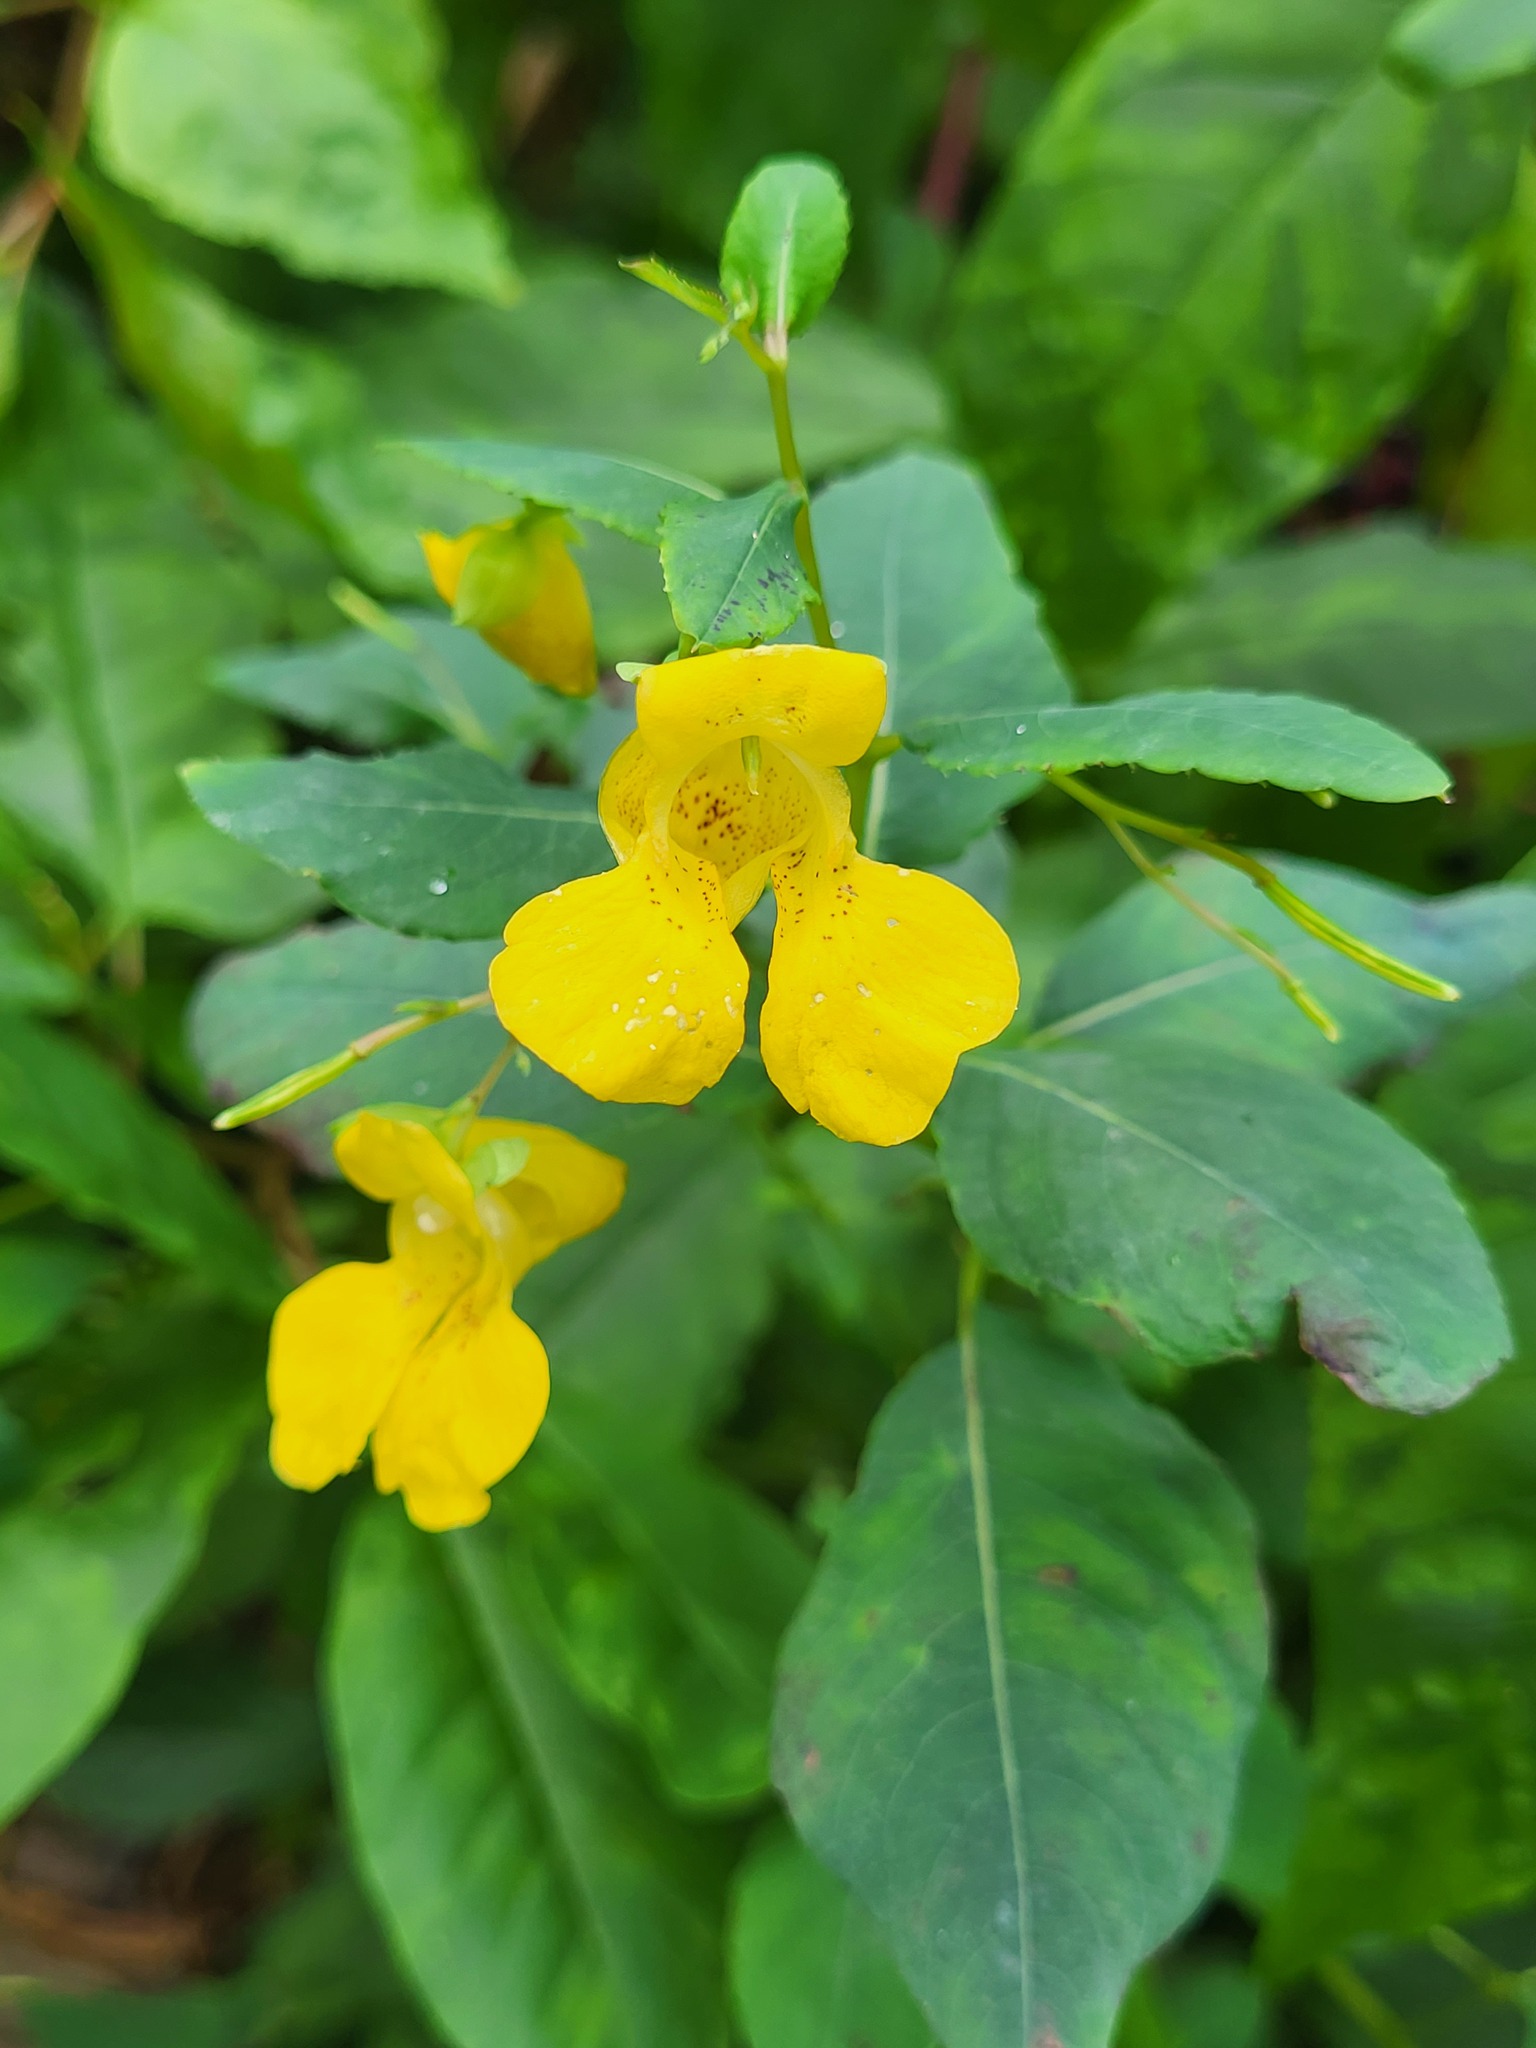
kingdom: Plantae
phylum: Tracheophyta
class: Magnoliopsida
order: Ericales
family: Balsaminaceae
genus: Impatiens
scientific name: Impatiens pallida
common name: Pale snapweed
